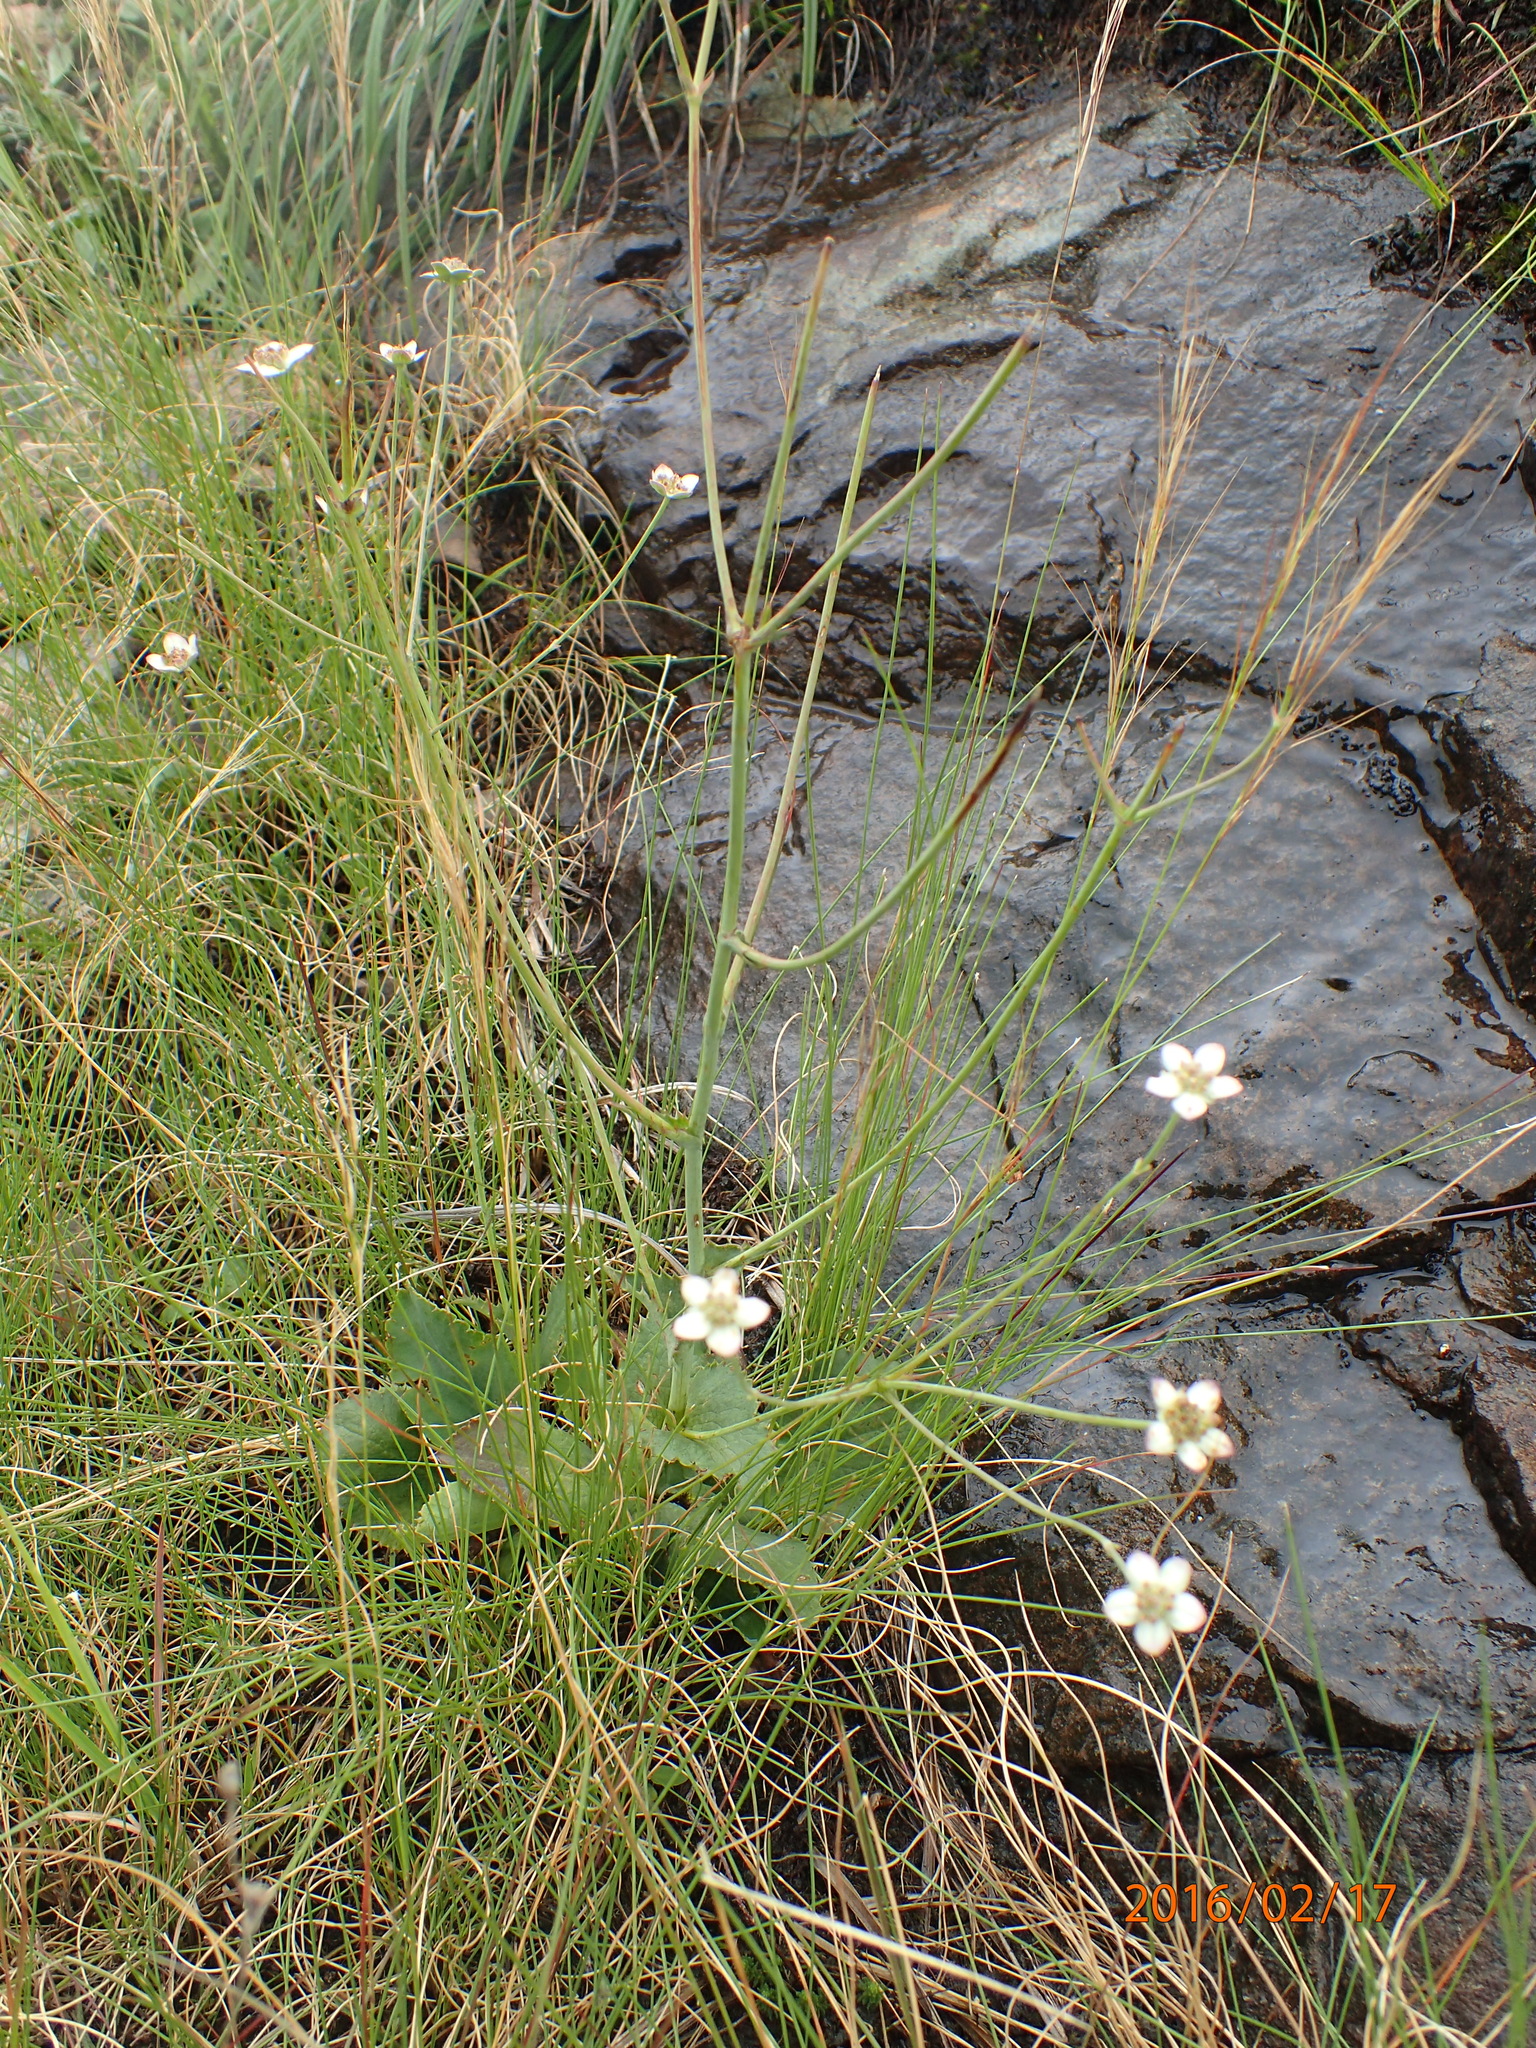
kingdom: Plantae
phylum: Tracheophyta
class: Magnoliopsida
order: Apiales
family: Apiaceae
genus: Alepidea
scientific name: Alepidea woodii
